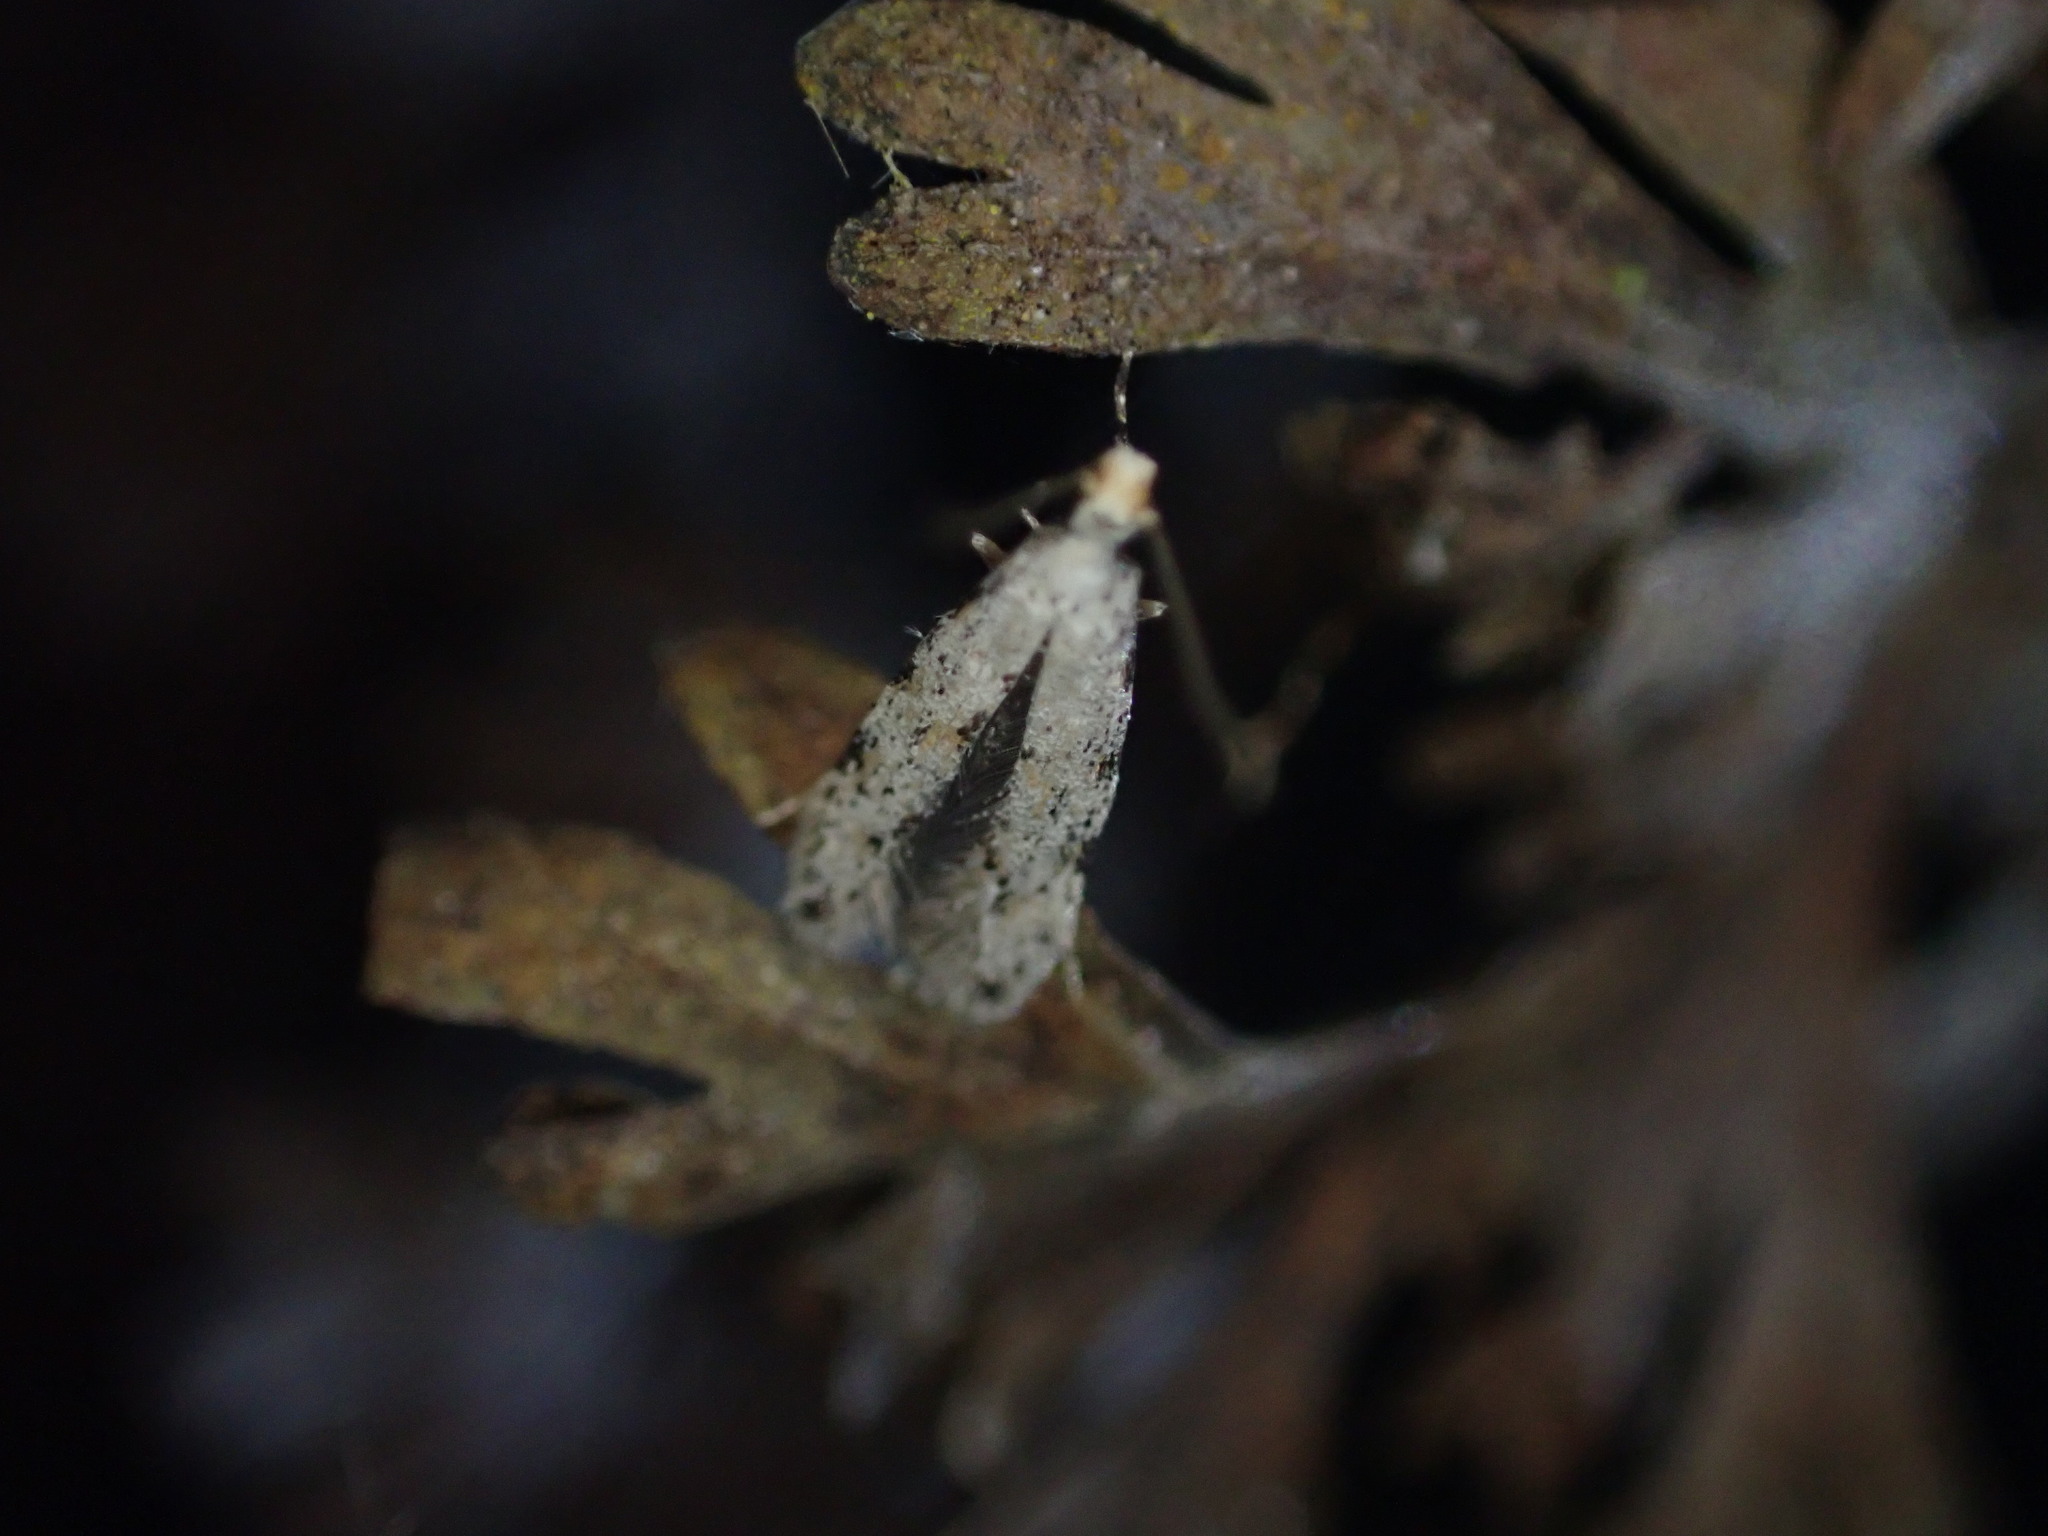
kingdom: Animalia
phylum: Arthropoda
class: Insecta
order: Lepidoptera
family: Tineidae
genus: Crypsitricha
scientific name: Crypsitricha stereota
